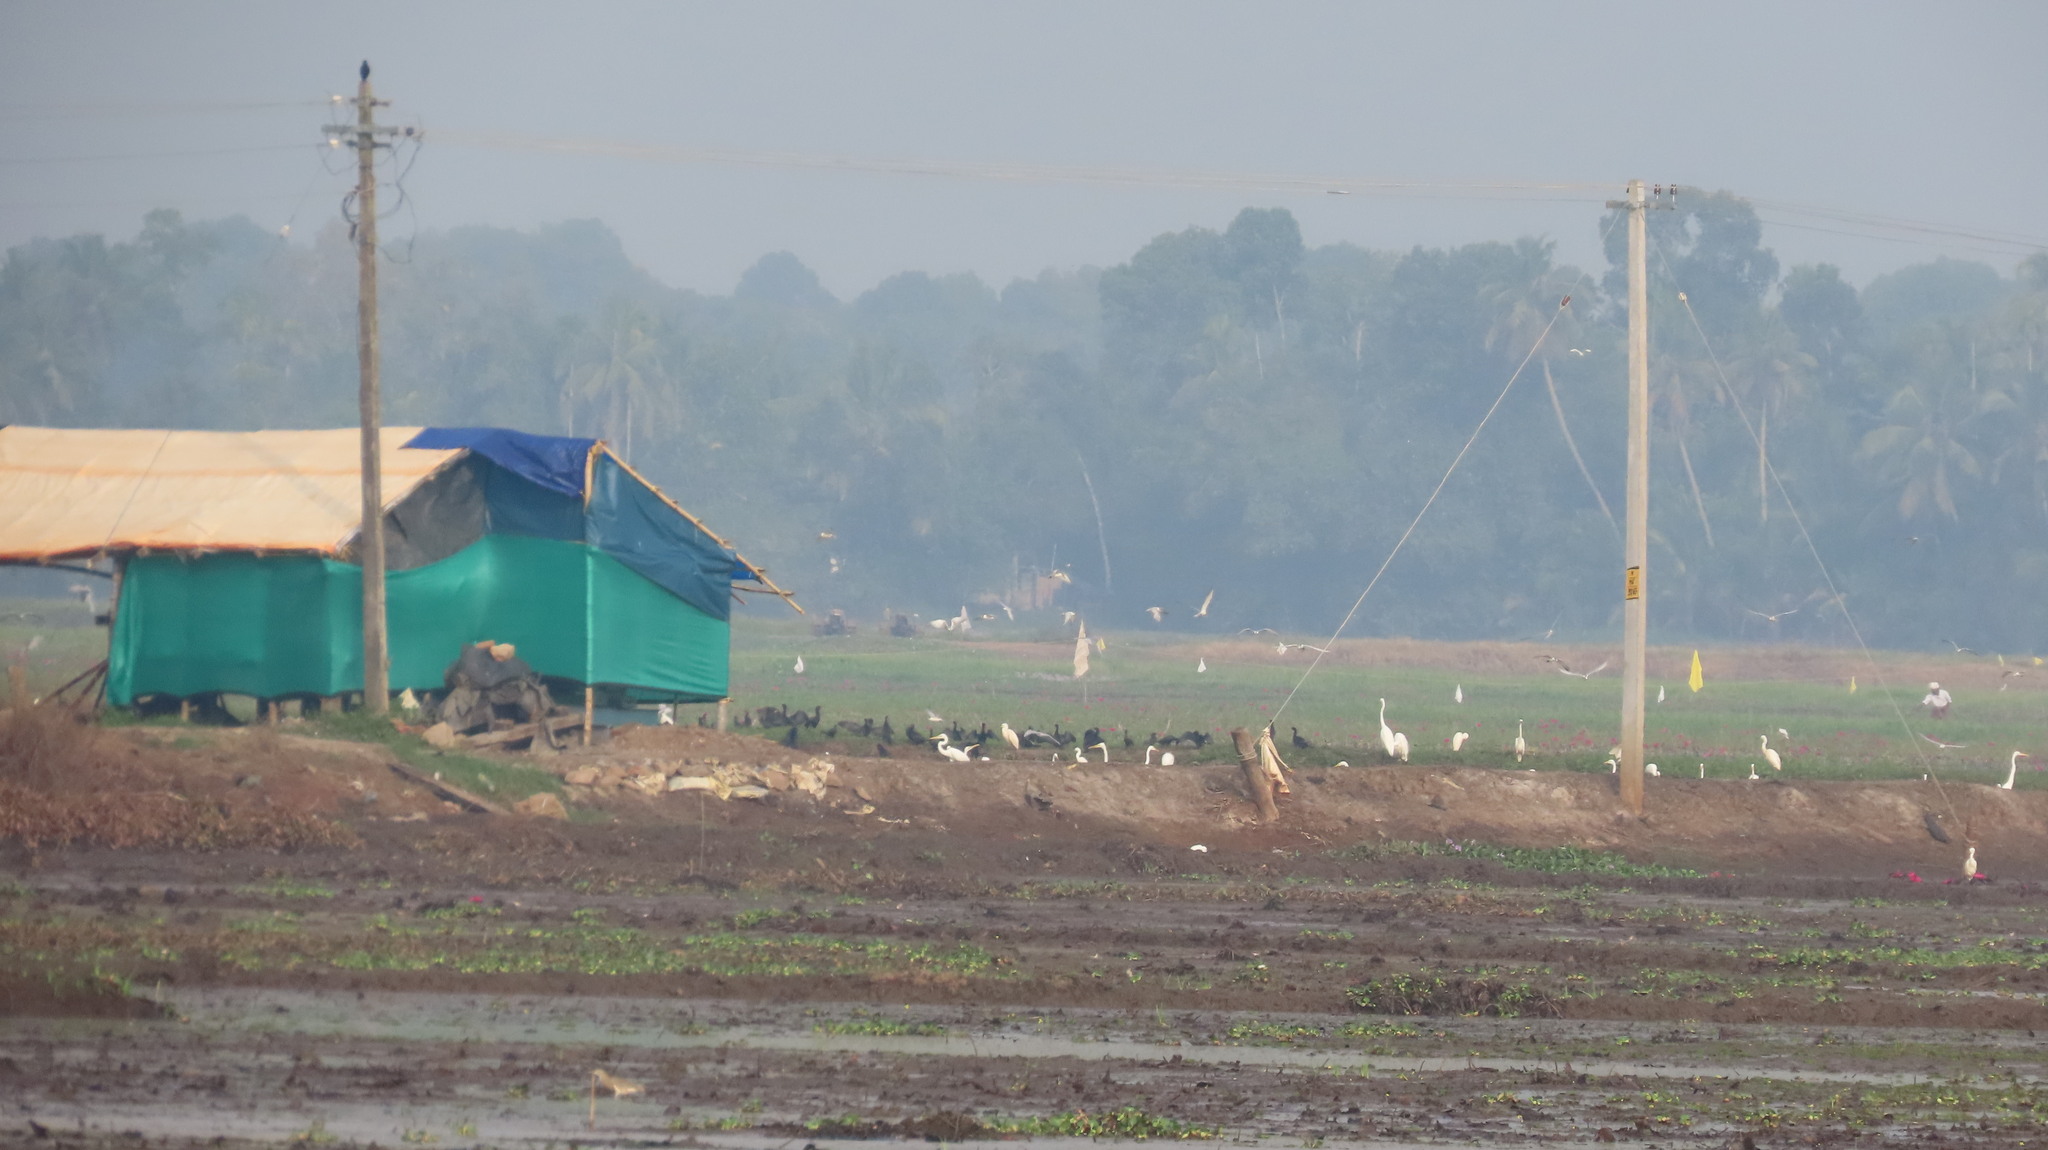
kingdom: Animalia
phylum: Chordata
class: Aves
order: Suliformes
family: Phalacrocoracidae
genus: Microcarbo
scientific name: Microcarbo niger
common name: Little cormorant
